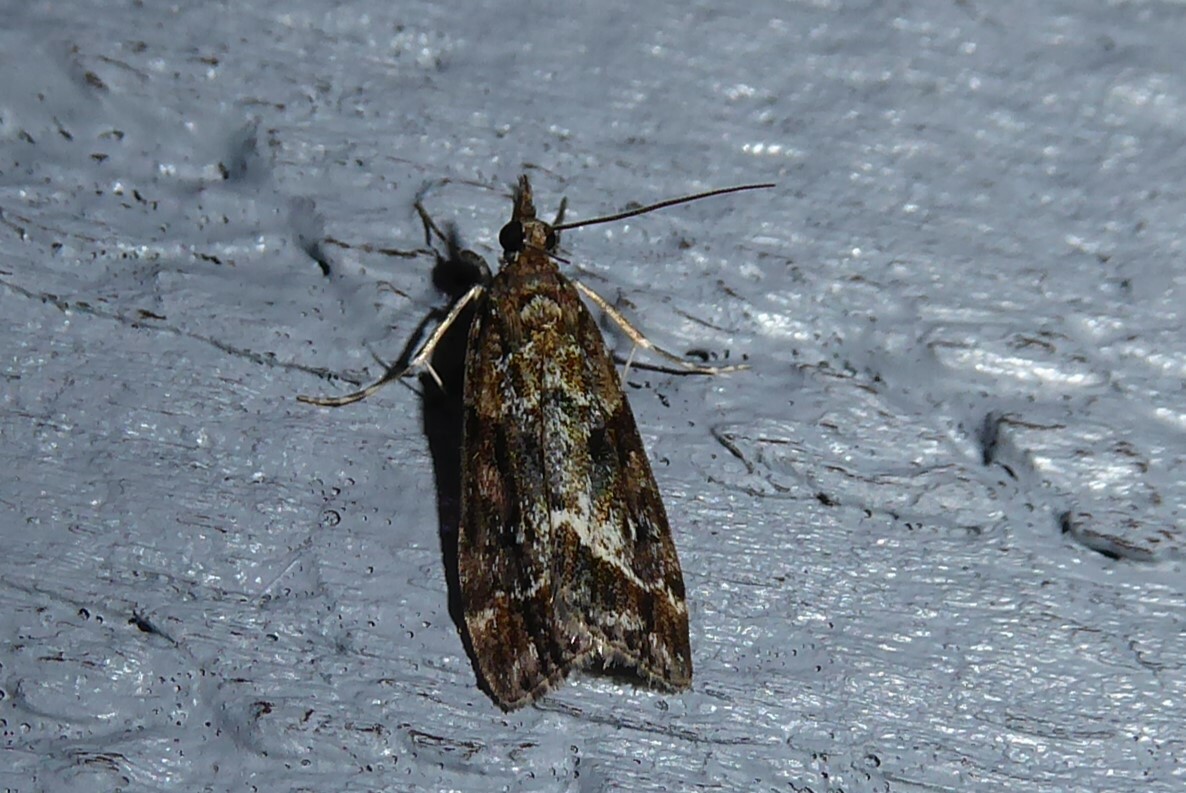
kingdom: Animalia
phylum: Arthropoda
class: Insecta
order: Lepidoptera
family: Crambidae
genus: Eudonia
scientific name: Eudonia legnota
